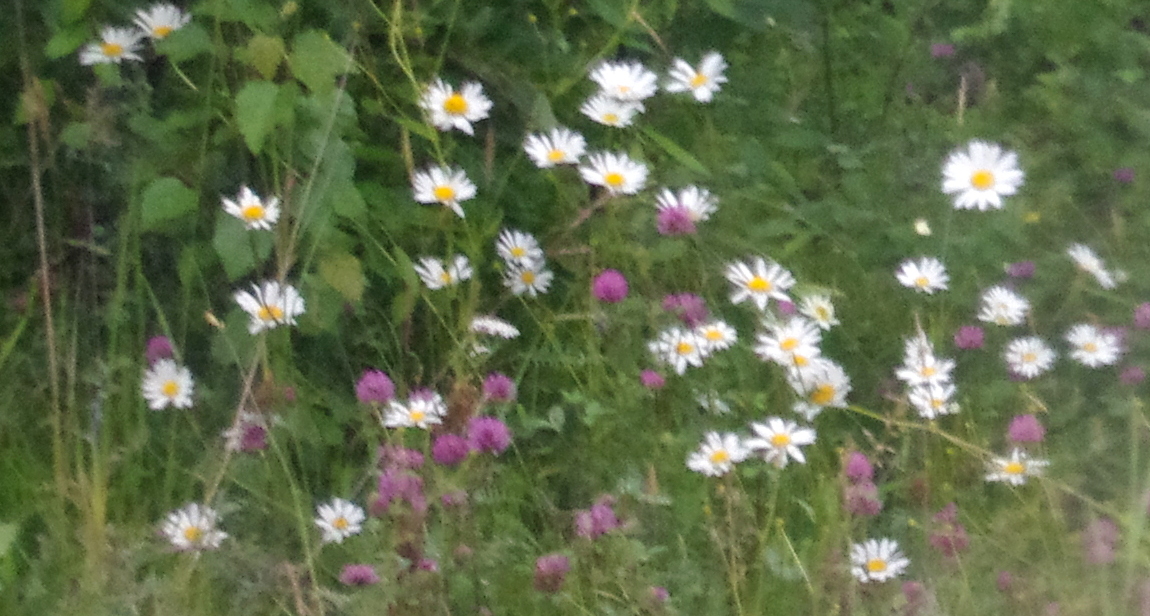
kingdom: Plantae
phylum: Tracheophyta
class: Magnoliopsida
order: Asterales
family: Asteraceae
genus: Leucanthemum
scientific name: Leucanthemum vulgare
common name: Oxeye daisy
